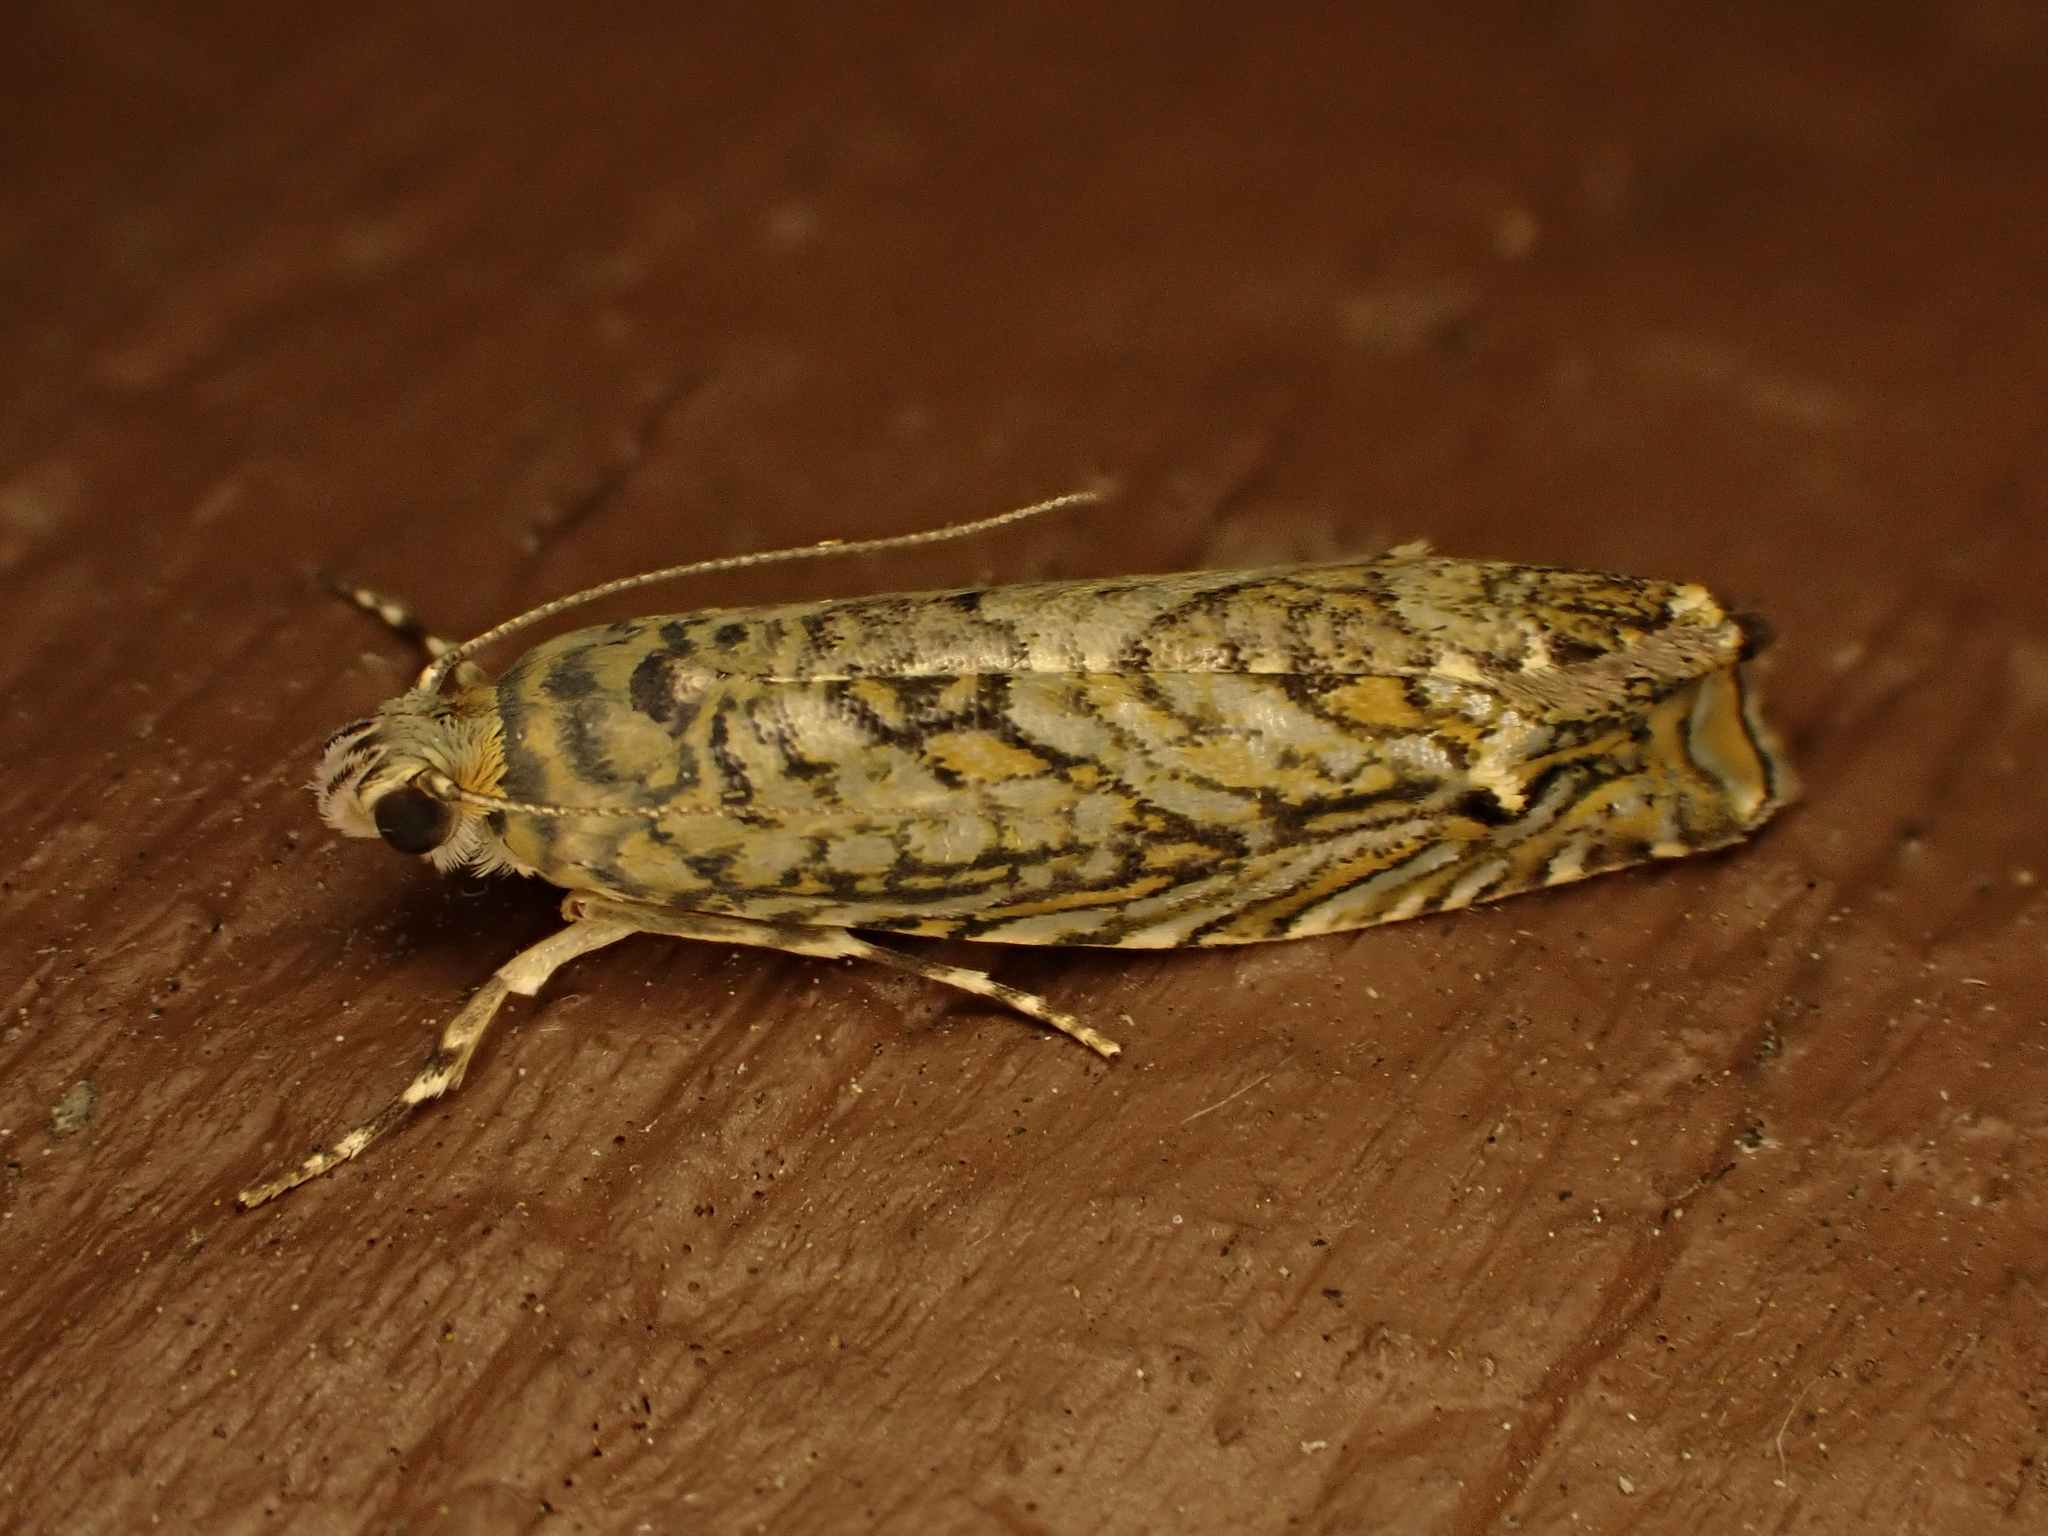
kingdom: Animalia
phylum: Arthropoda
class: Insecta
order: Lepidoptera
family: Plutellidae
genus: Doxophyrtis
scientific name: Doxophyrtis hydrocosma
